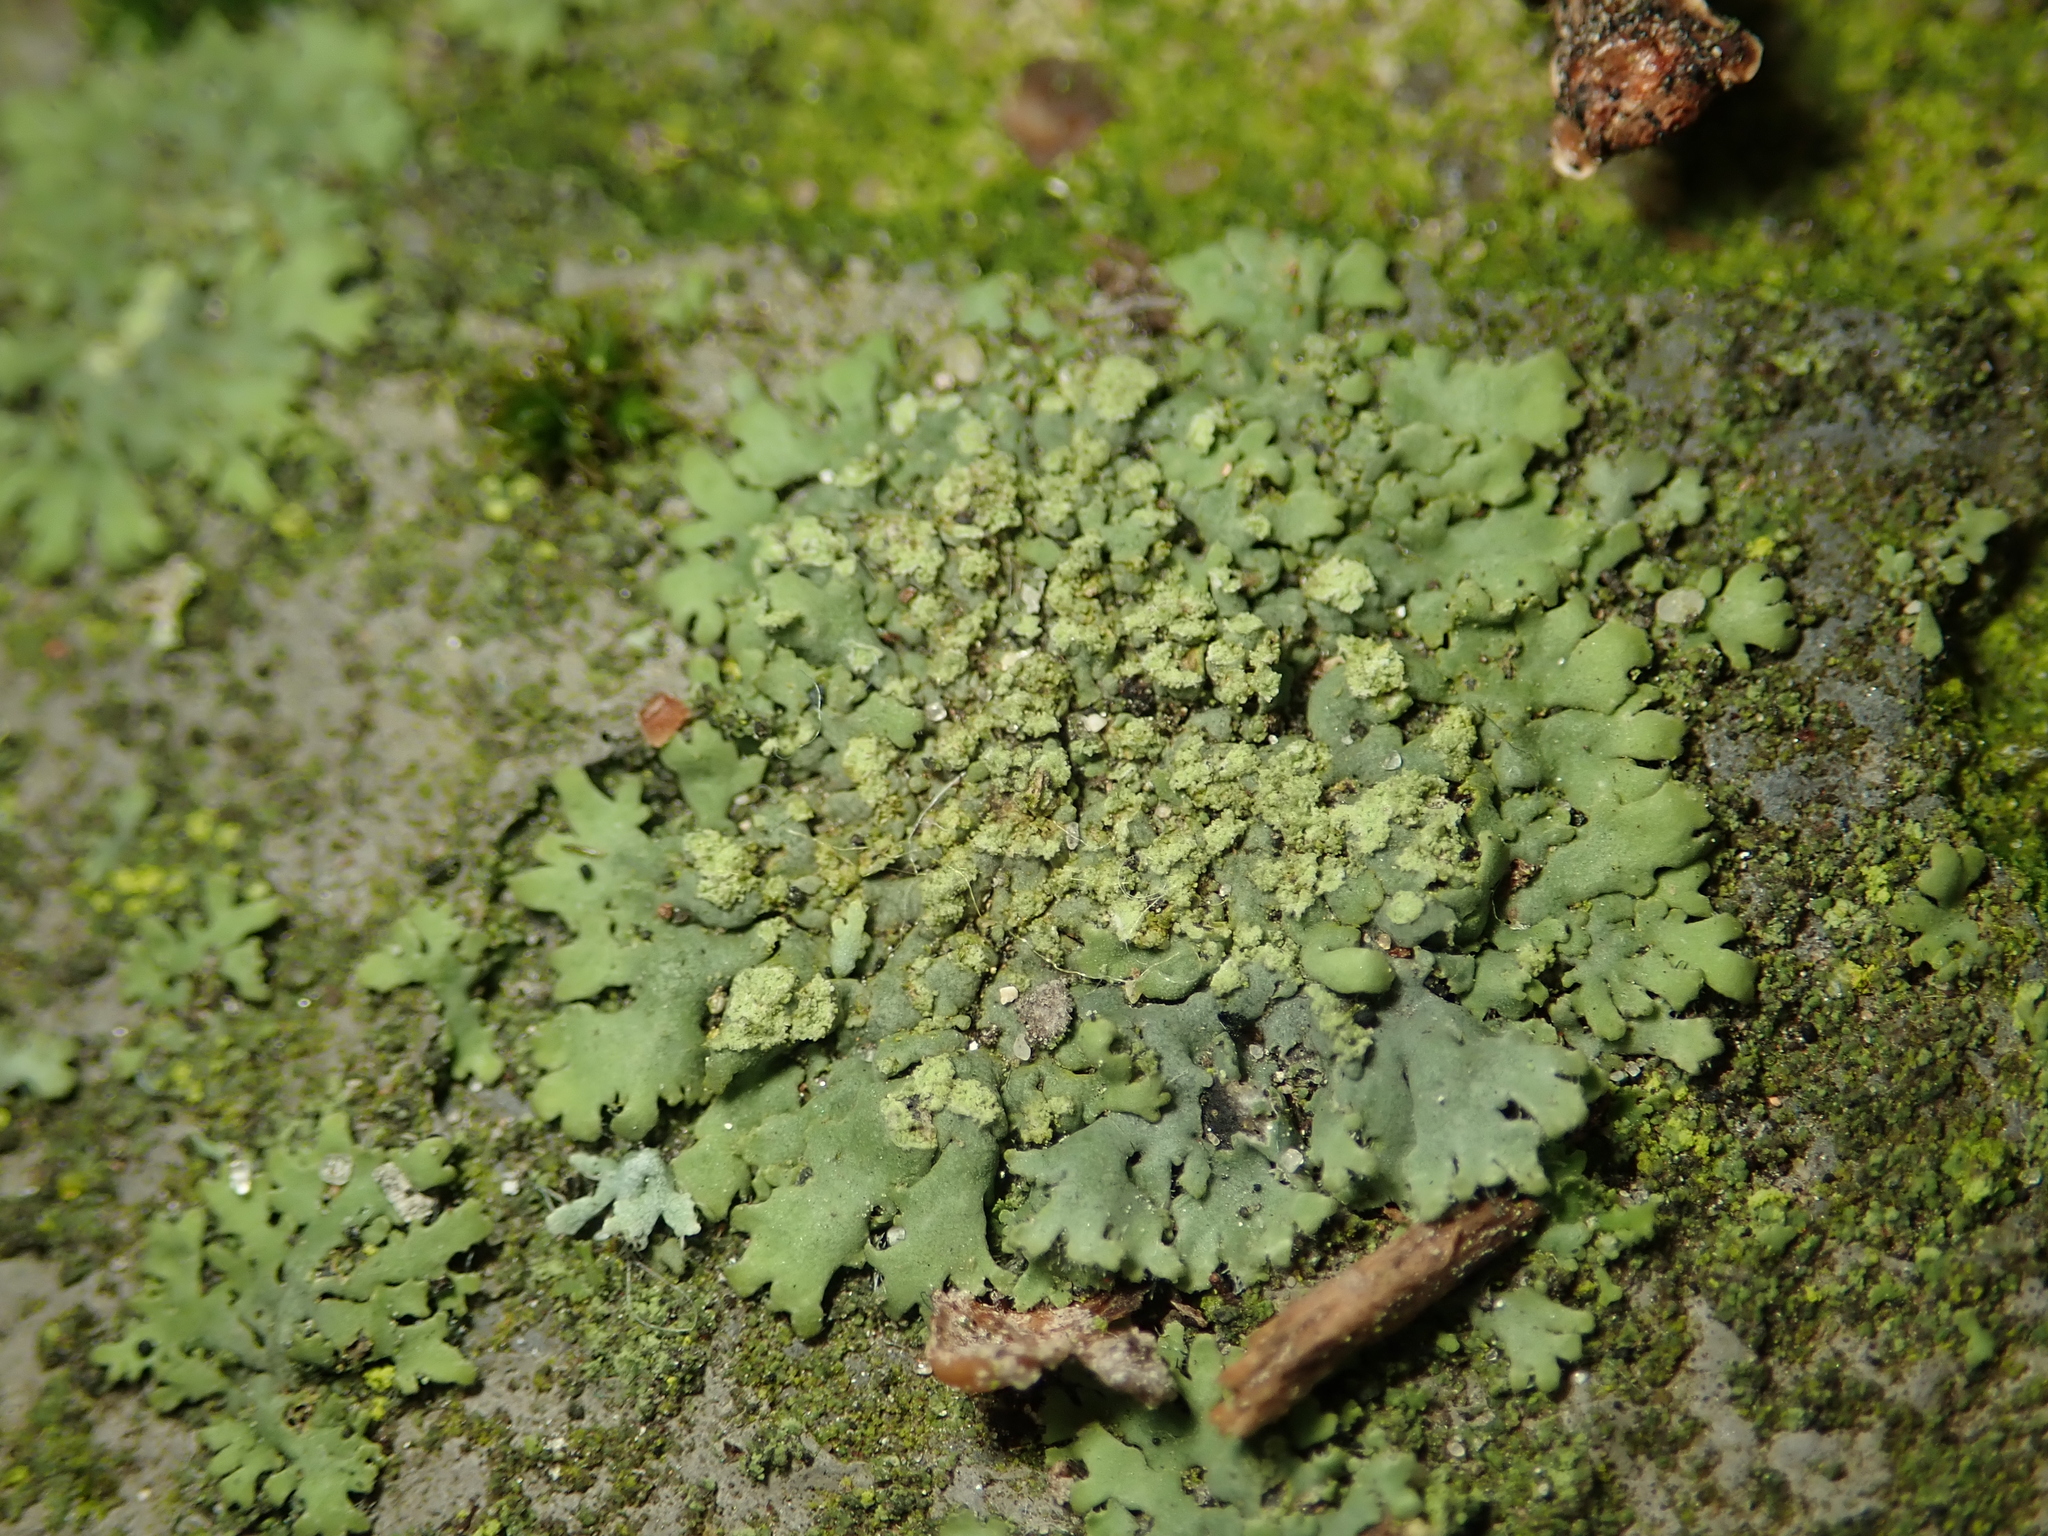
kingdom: Fungi
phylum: Ascomycota
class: Lecanoromycetes
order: Caliciales
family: Physciaceae
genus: Phaeophyscia
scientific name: Phaeophyscia orbicularis
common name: Mealy shadow lichen
